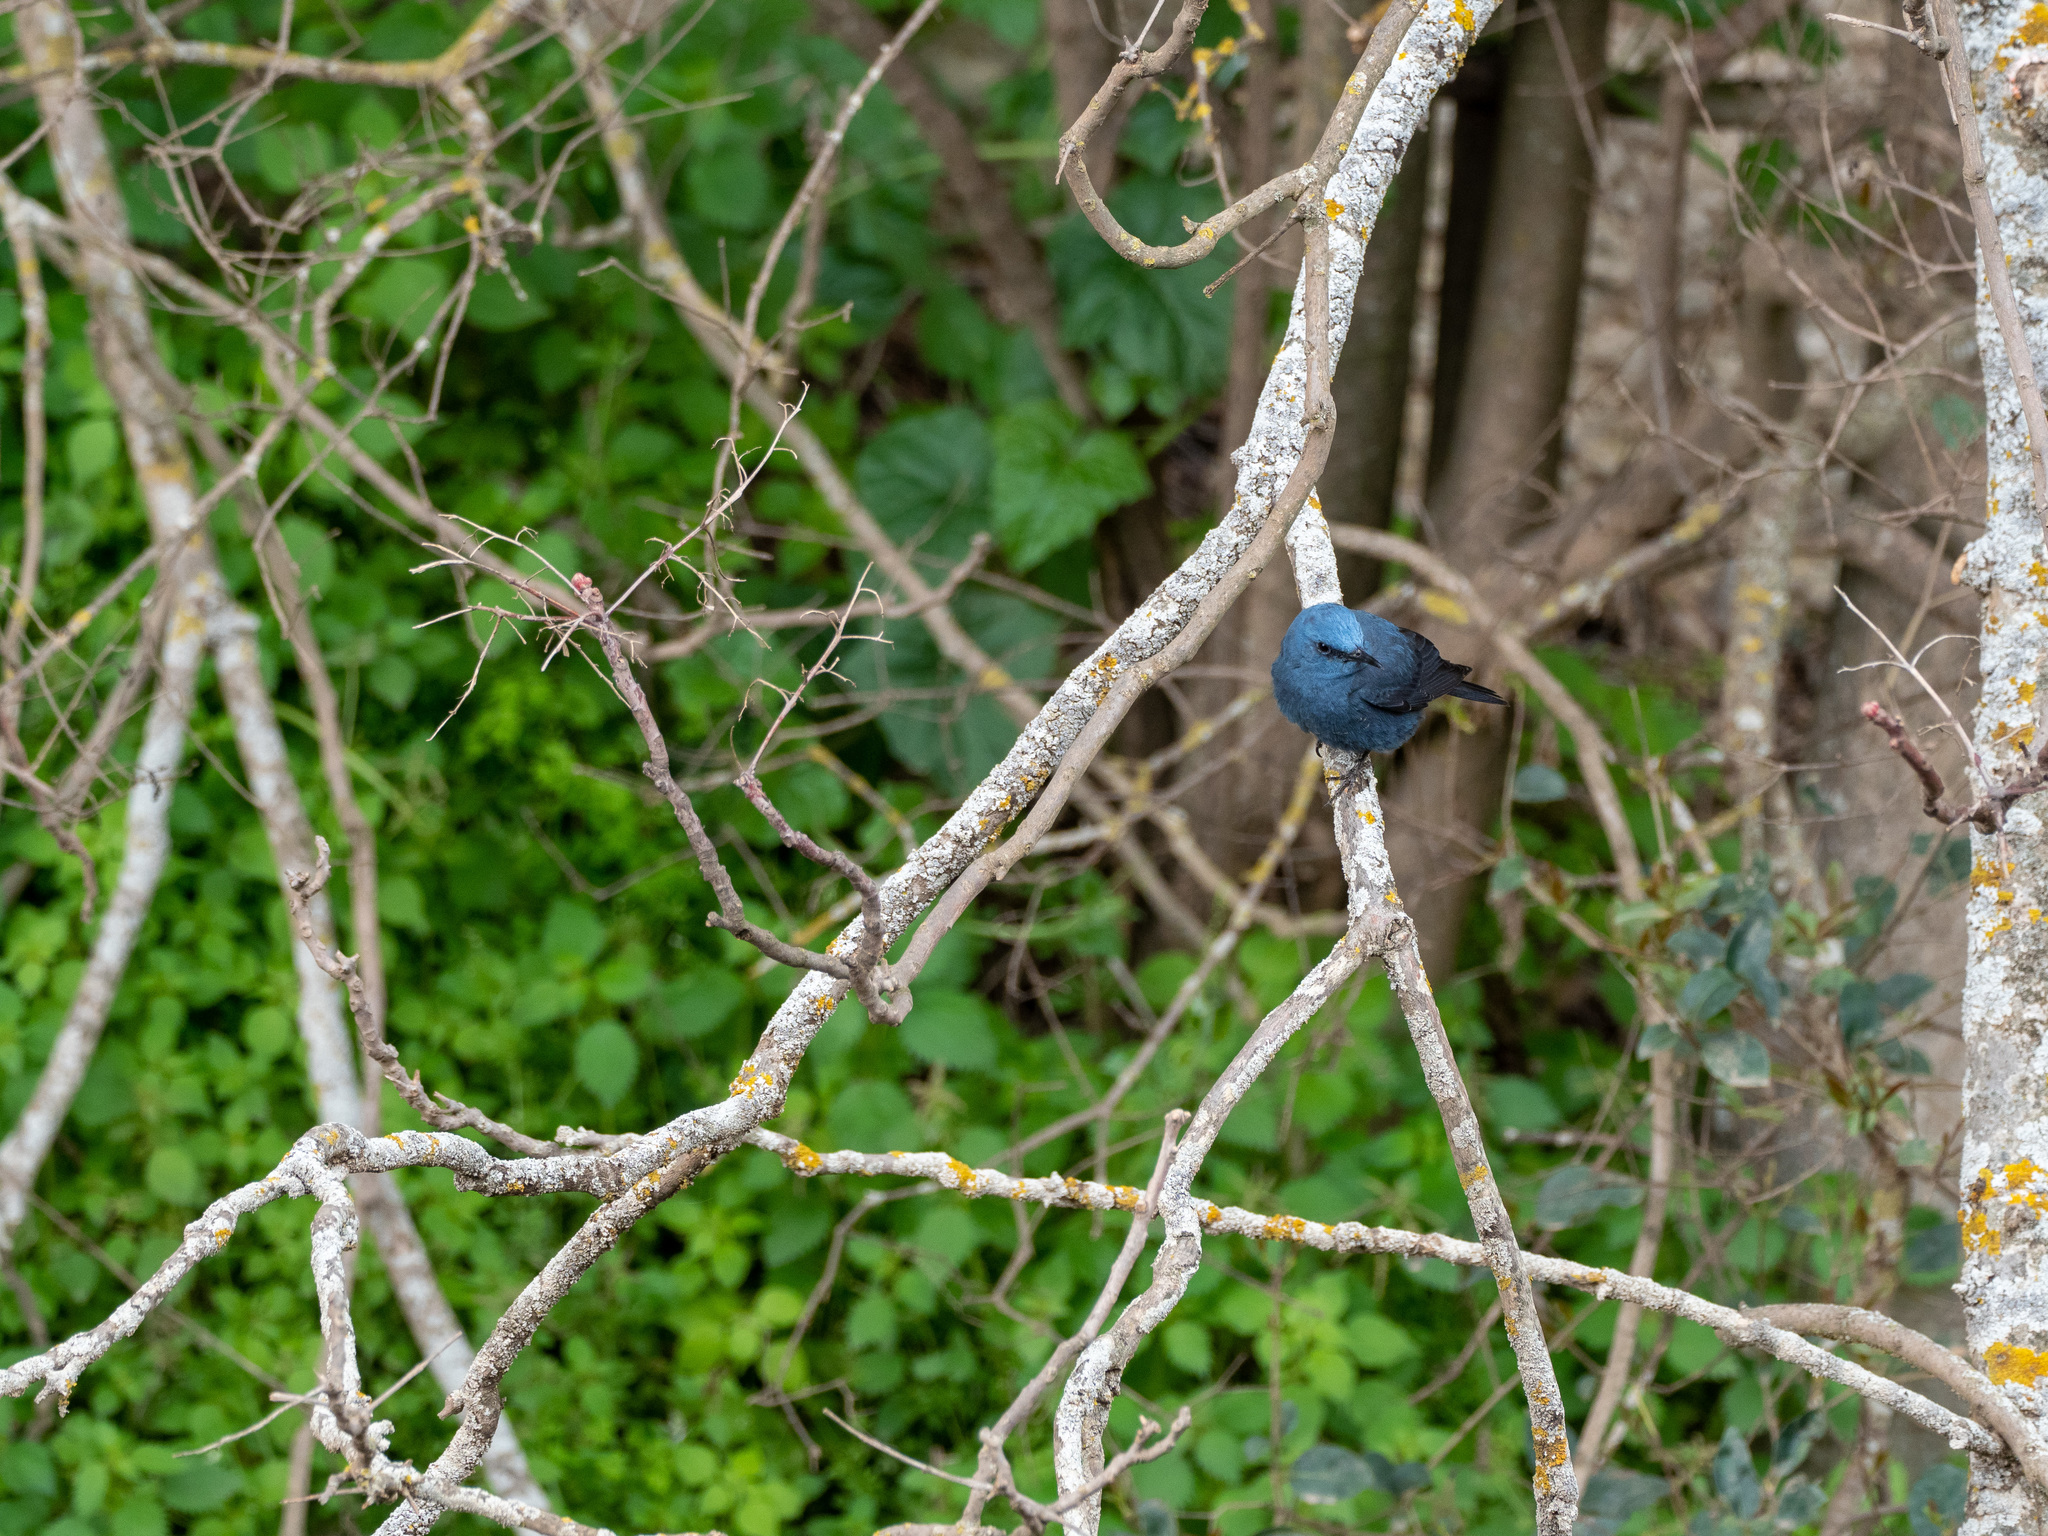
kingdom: Animalia
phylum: Chordata
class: Aves
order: Passeriformes
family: Muscicapidae
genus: Monticola
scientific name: Monticola solitarius
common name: Blue rock thrush
